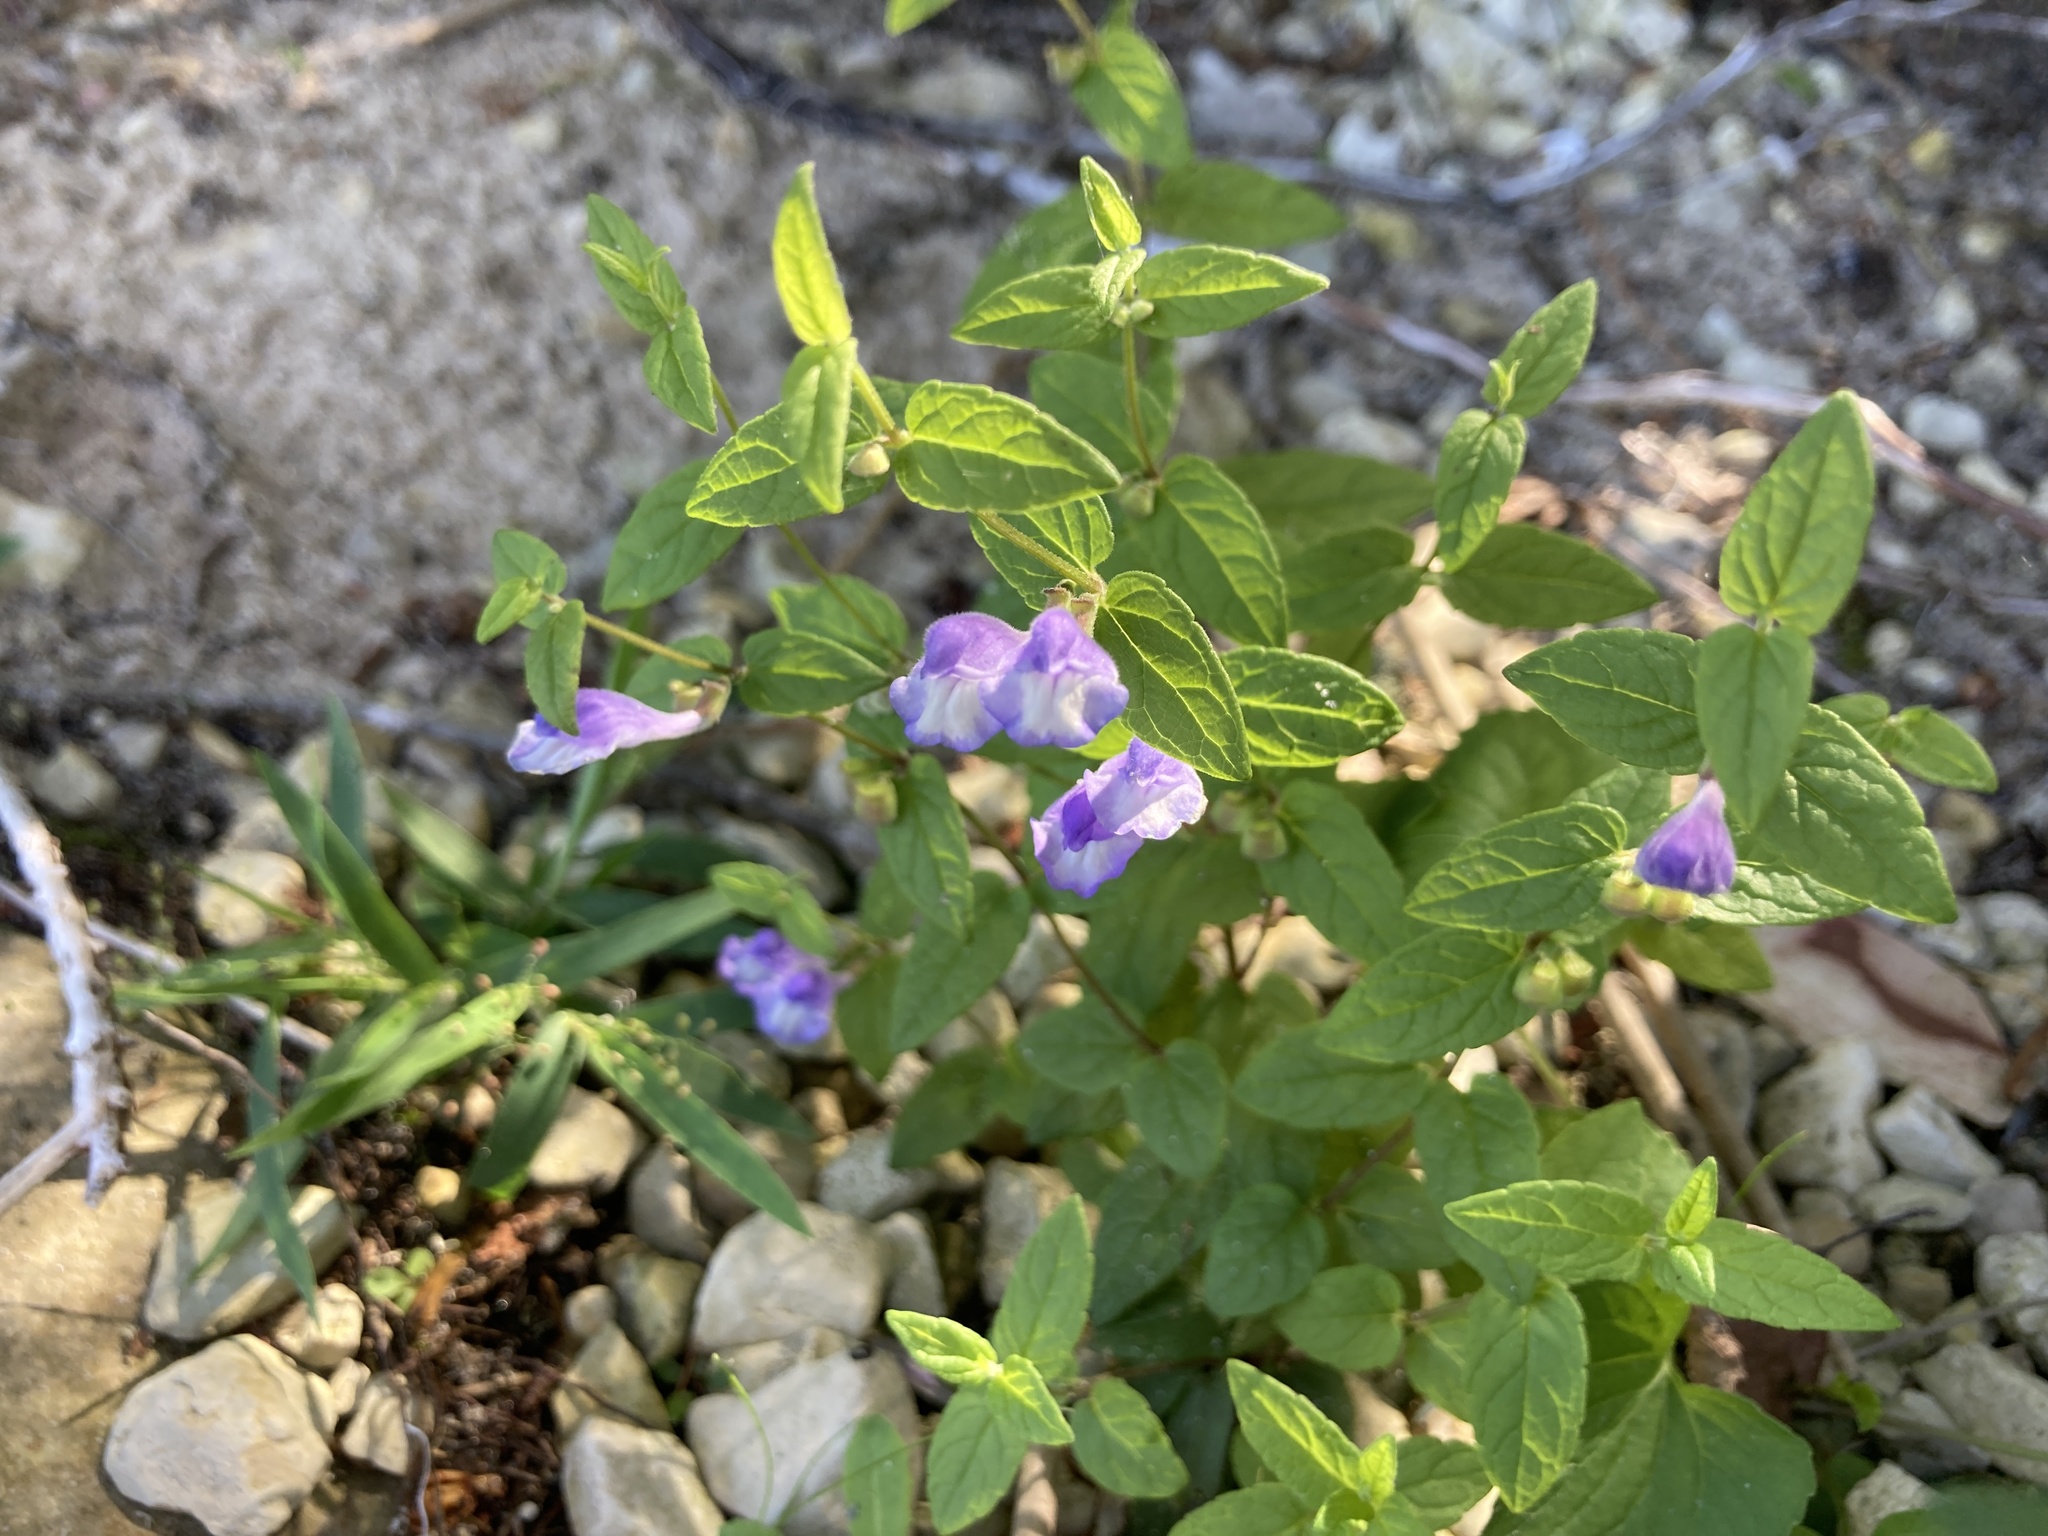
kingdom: Plantae
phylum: Tracheophyta
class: Magnoliopsida
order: Lamiales
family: Lamiaceae
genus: Scutellaria
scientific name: Scutellaria galericulata
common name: Skullcap
